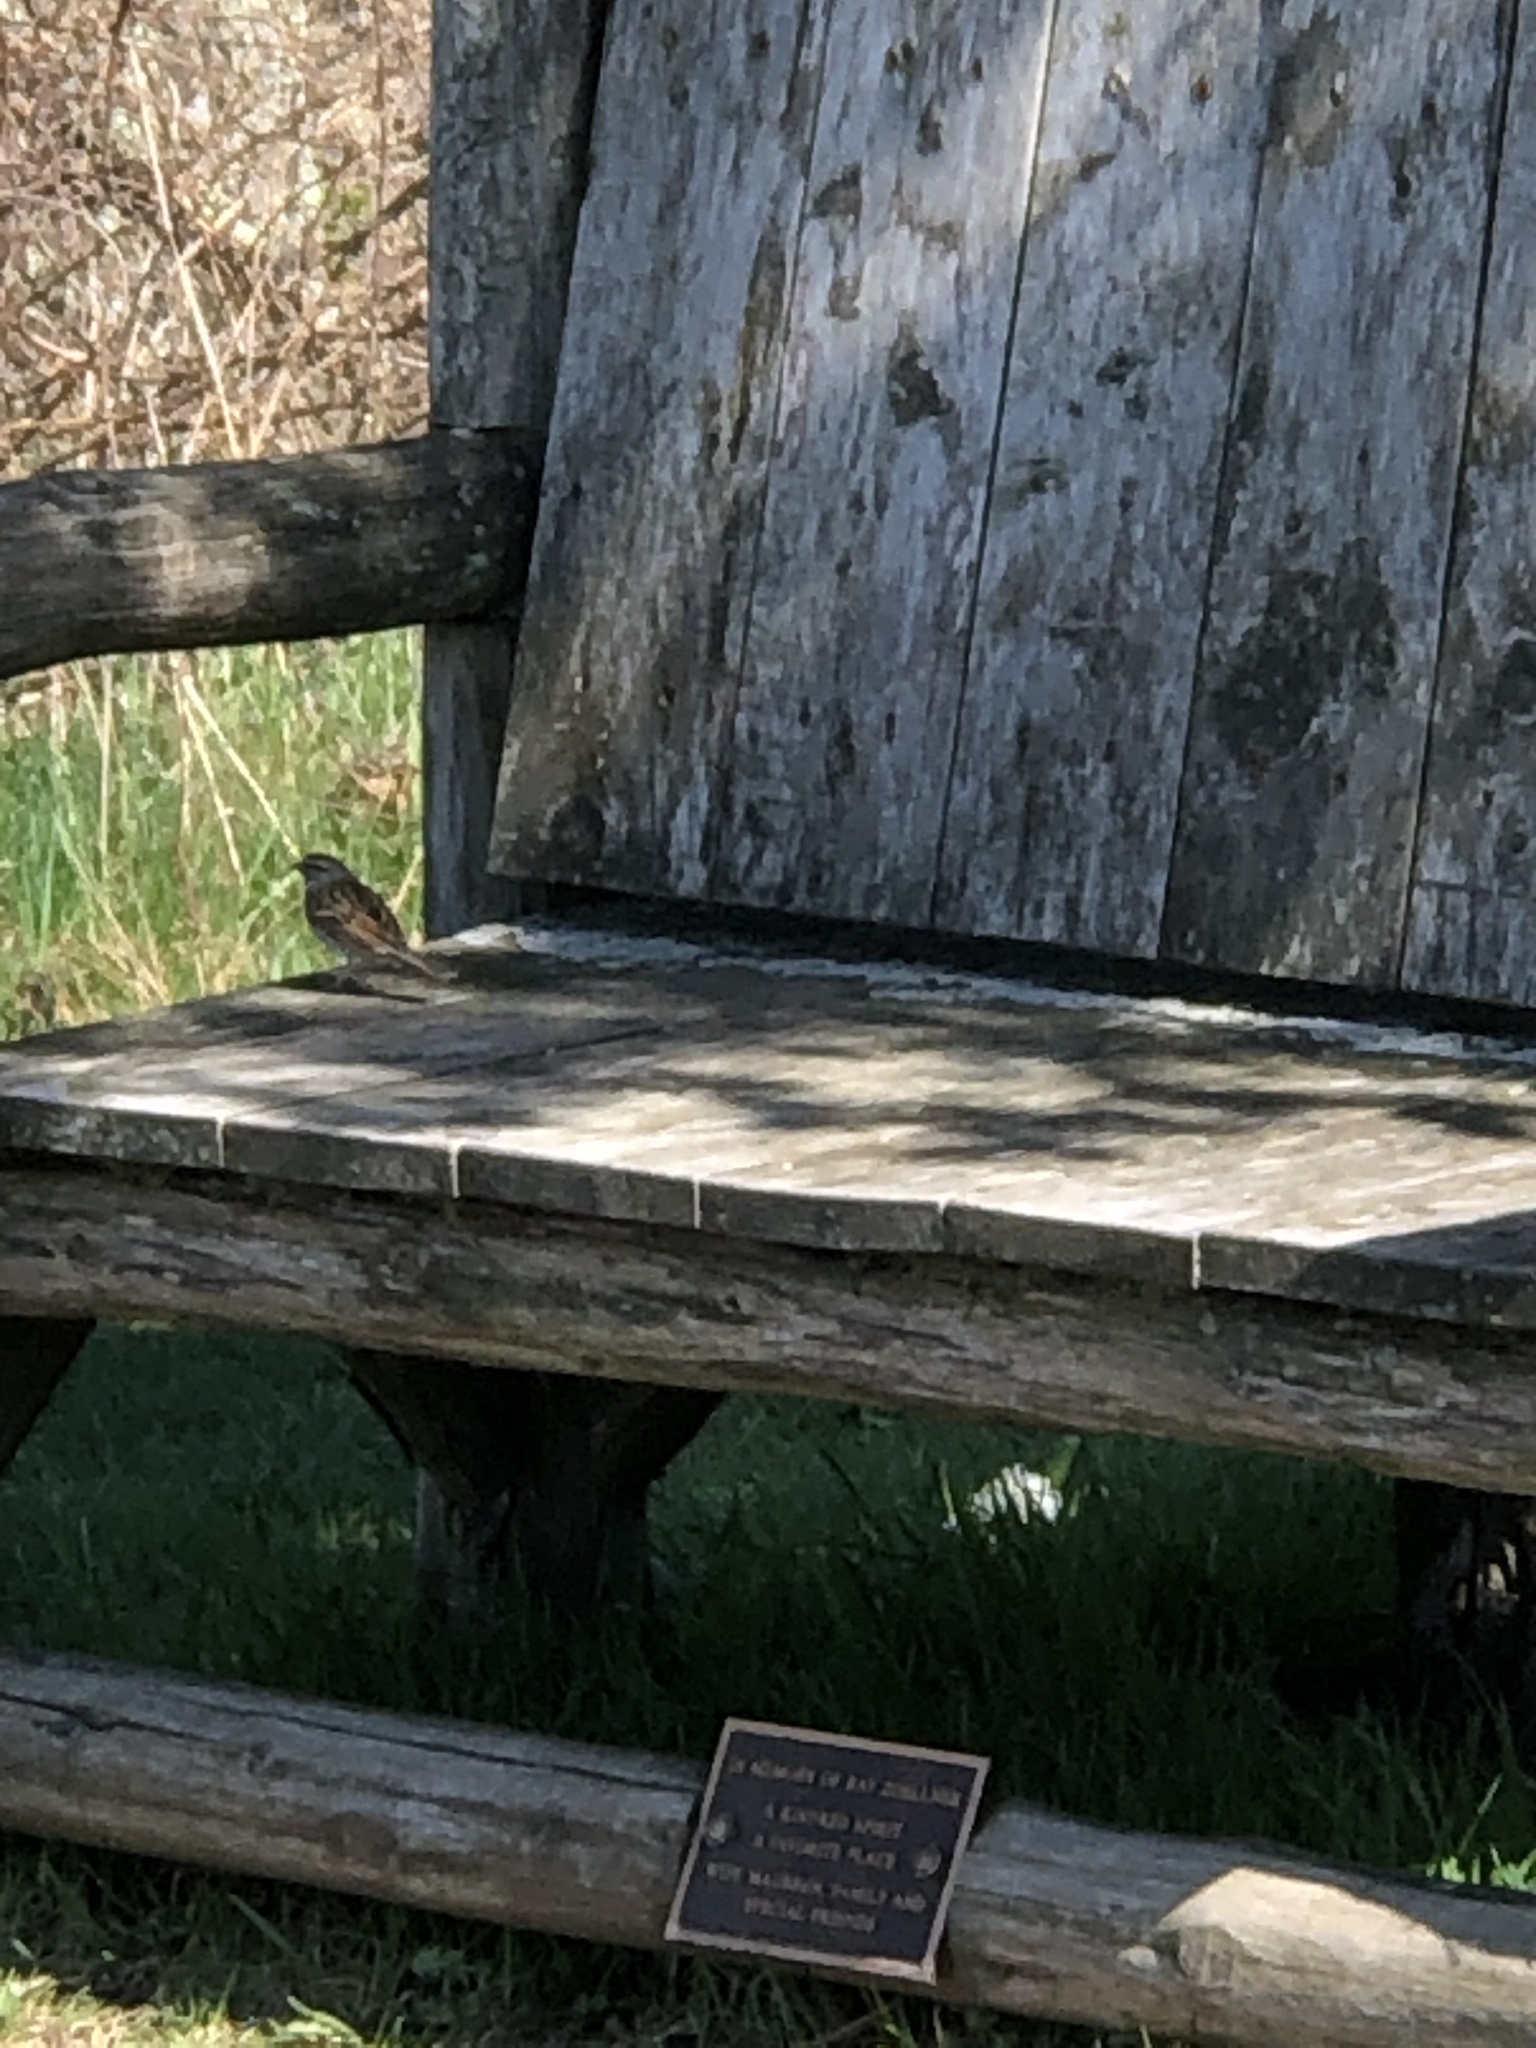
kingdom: Animalia
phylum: Chordata
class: Aves
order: Passeriformes
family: Passerellidae
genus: Spizella
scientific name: Spizella passerina
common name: Chipping sparrow
